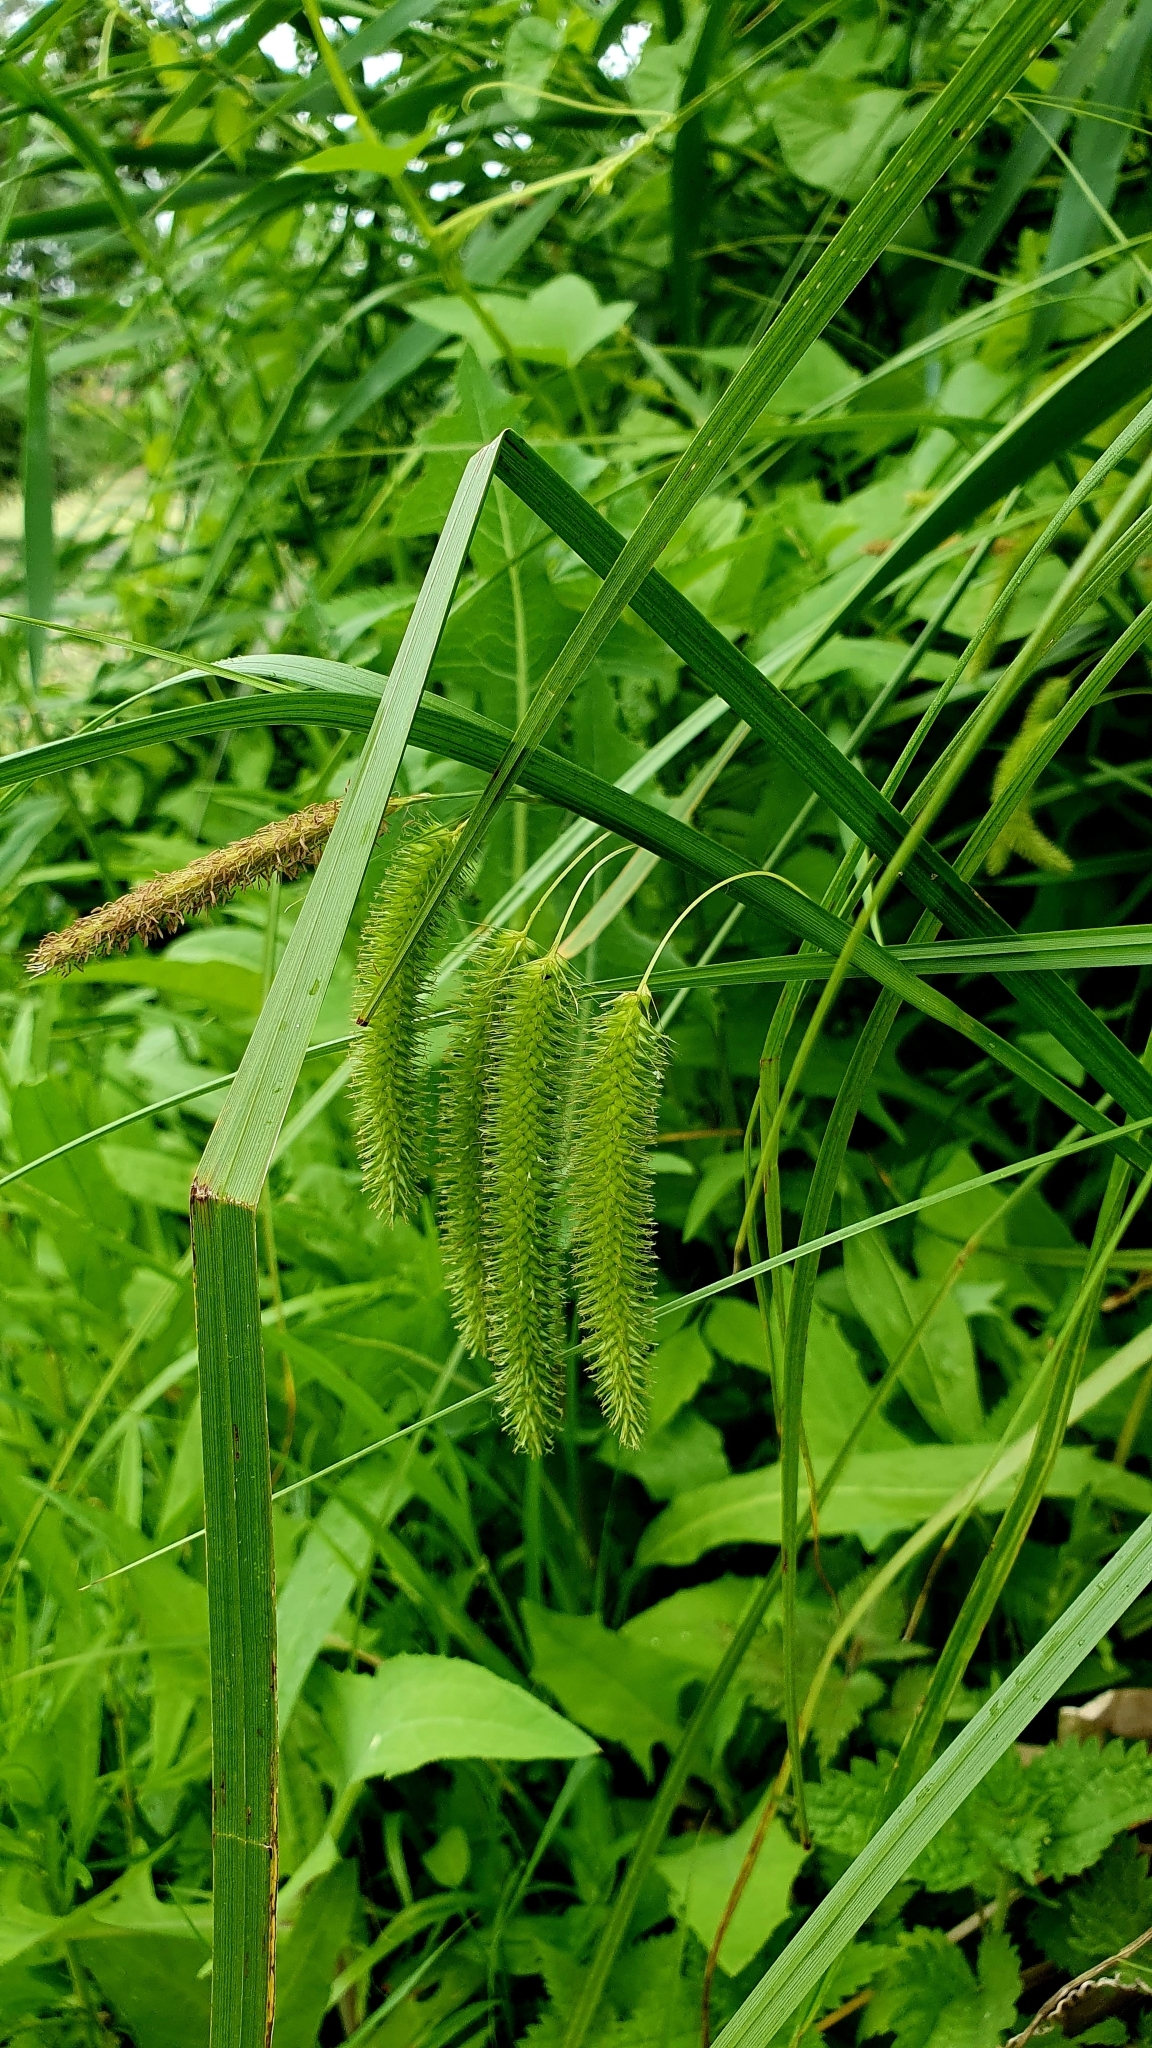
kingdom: Plantae
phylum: Tracheophyta
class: Liliopsida
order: Poales
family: Cyperaceae
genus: Carex
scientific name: Carex pseudocyperus
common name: Cyperus sedge
